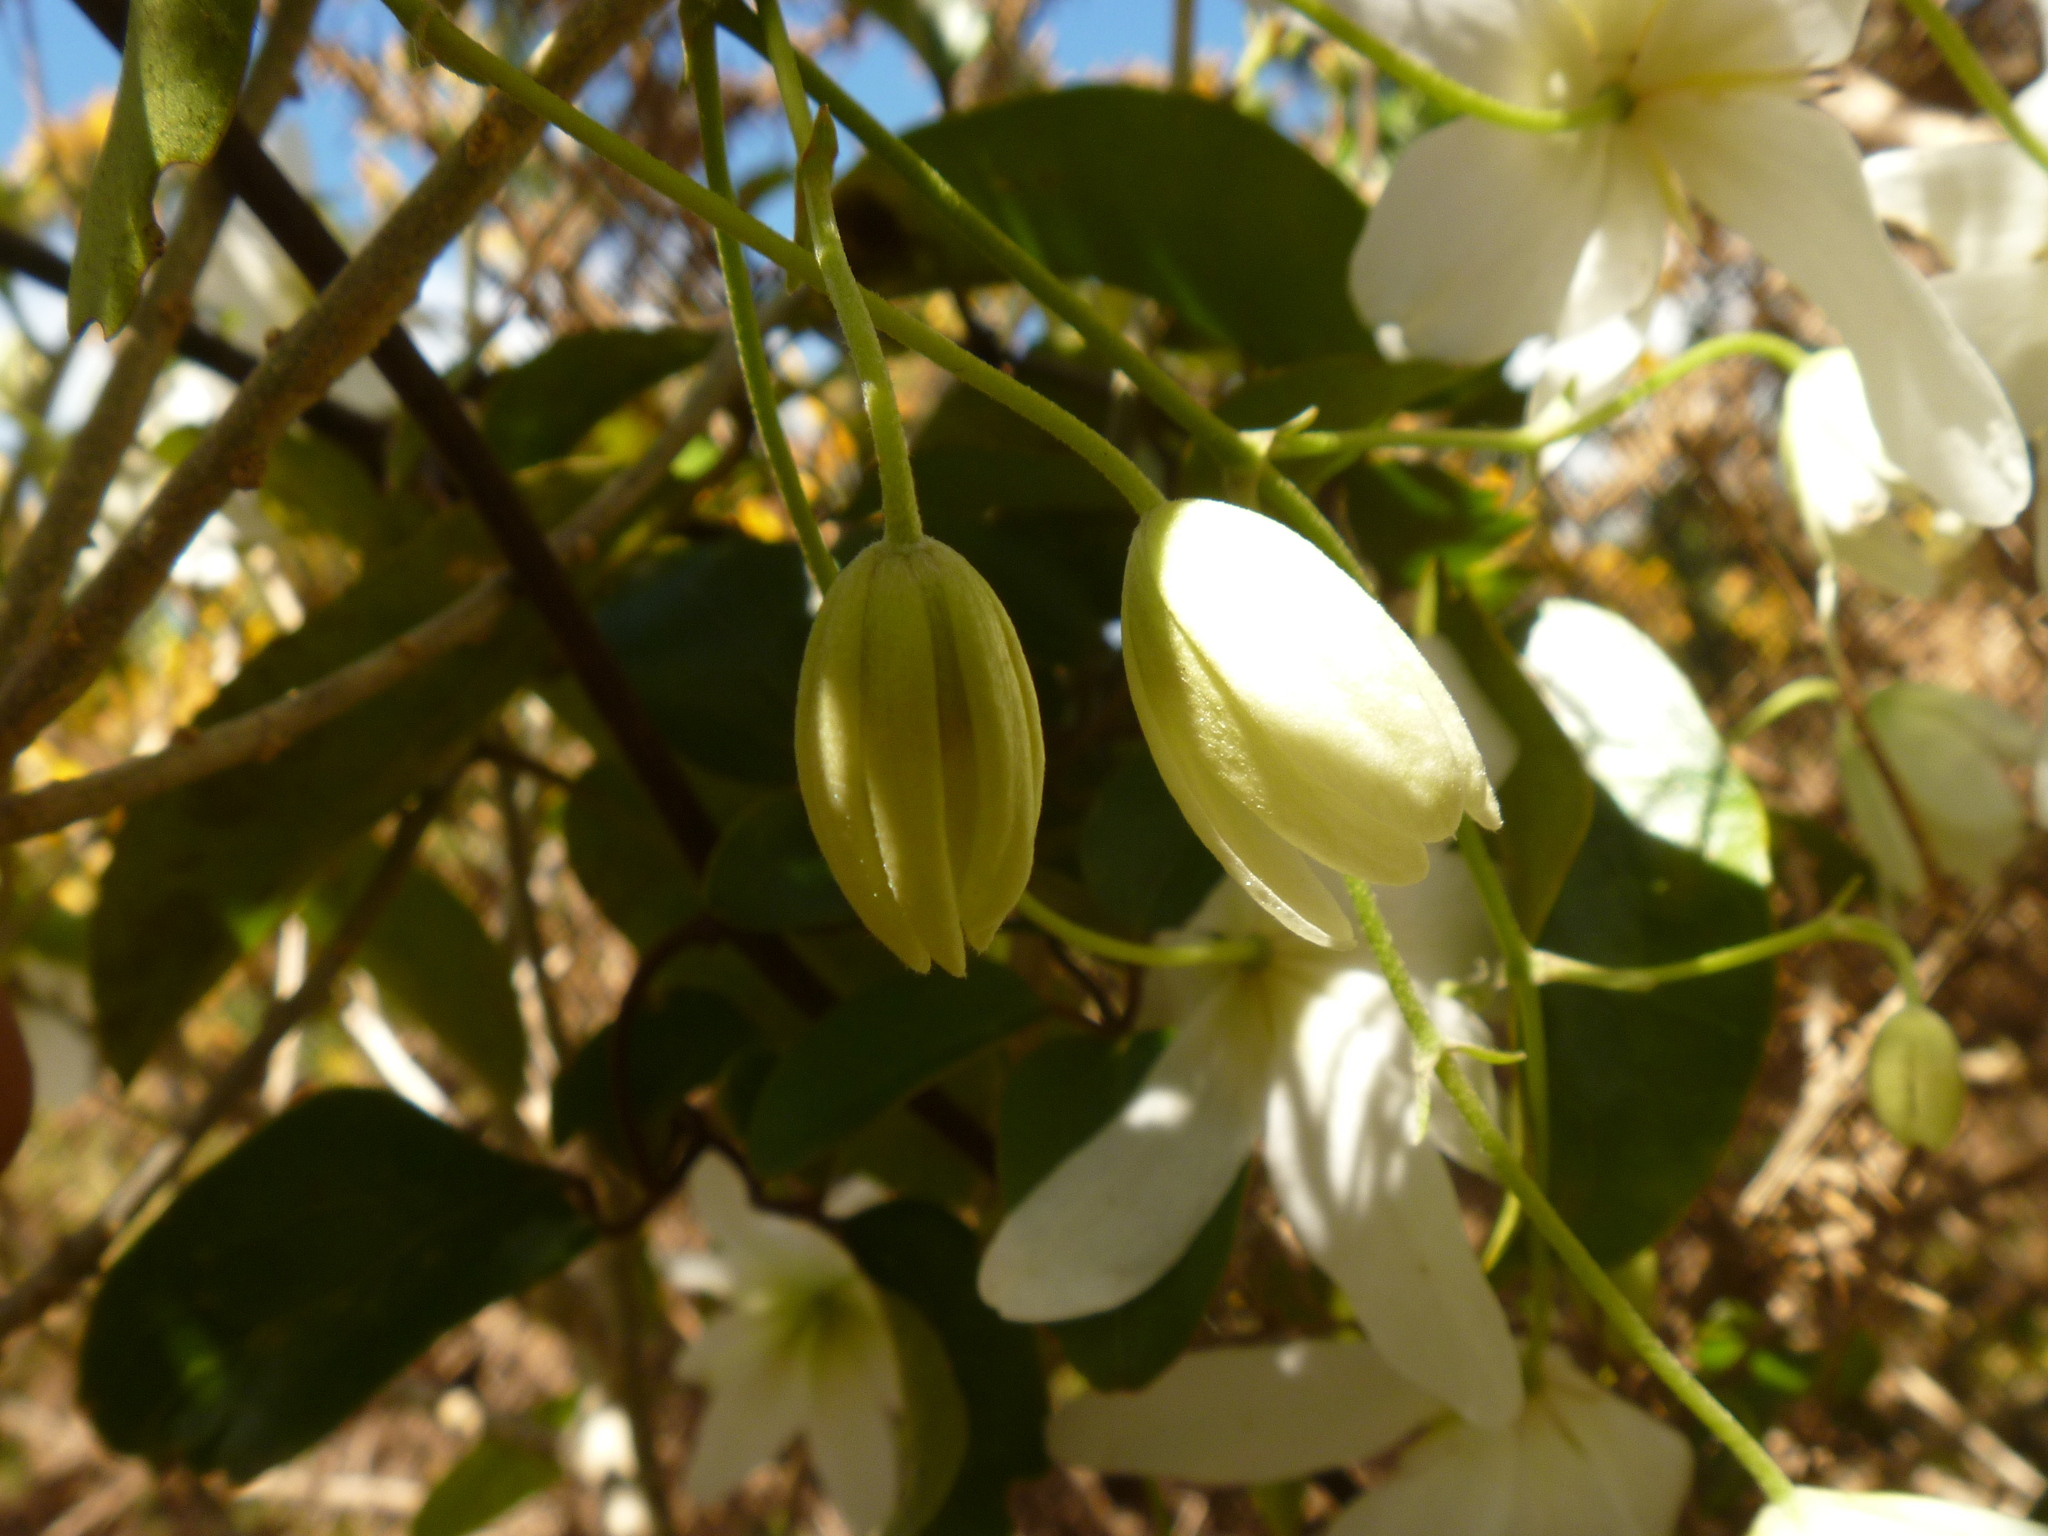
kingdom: Plantae
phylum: Tracheophyta
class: Magnoliopsida
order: Ranunculales
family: Ranunculaceae
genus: Clematis
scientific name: Clematis paniculata
